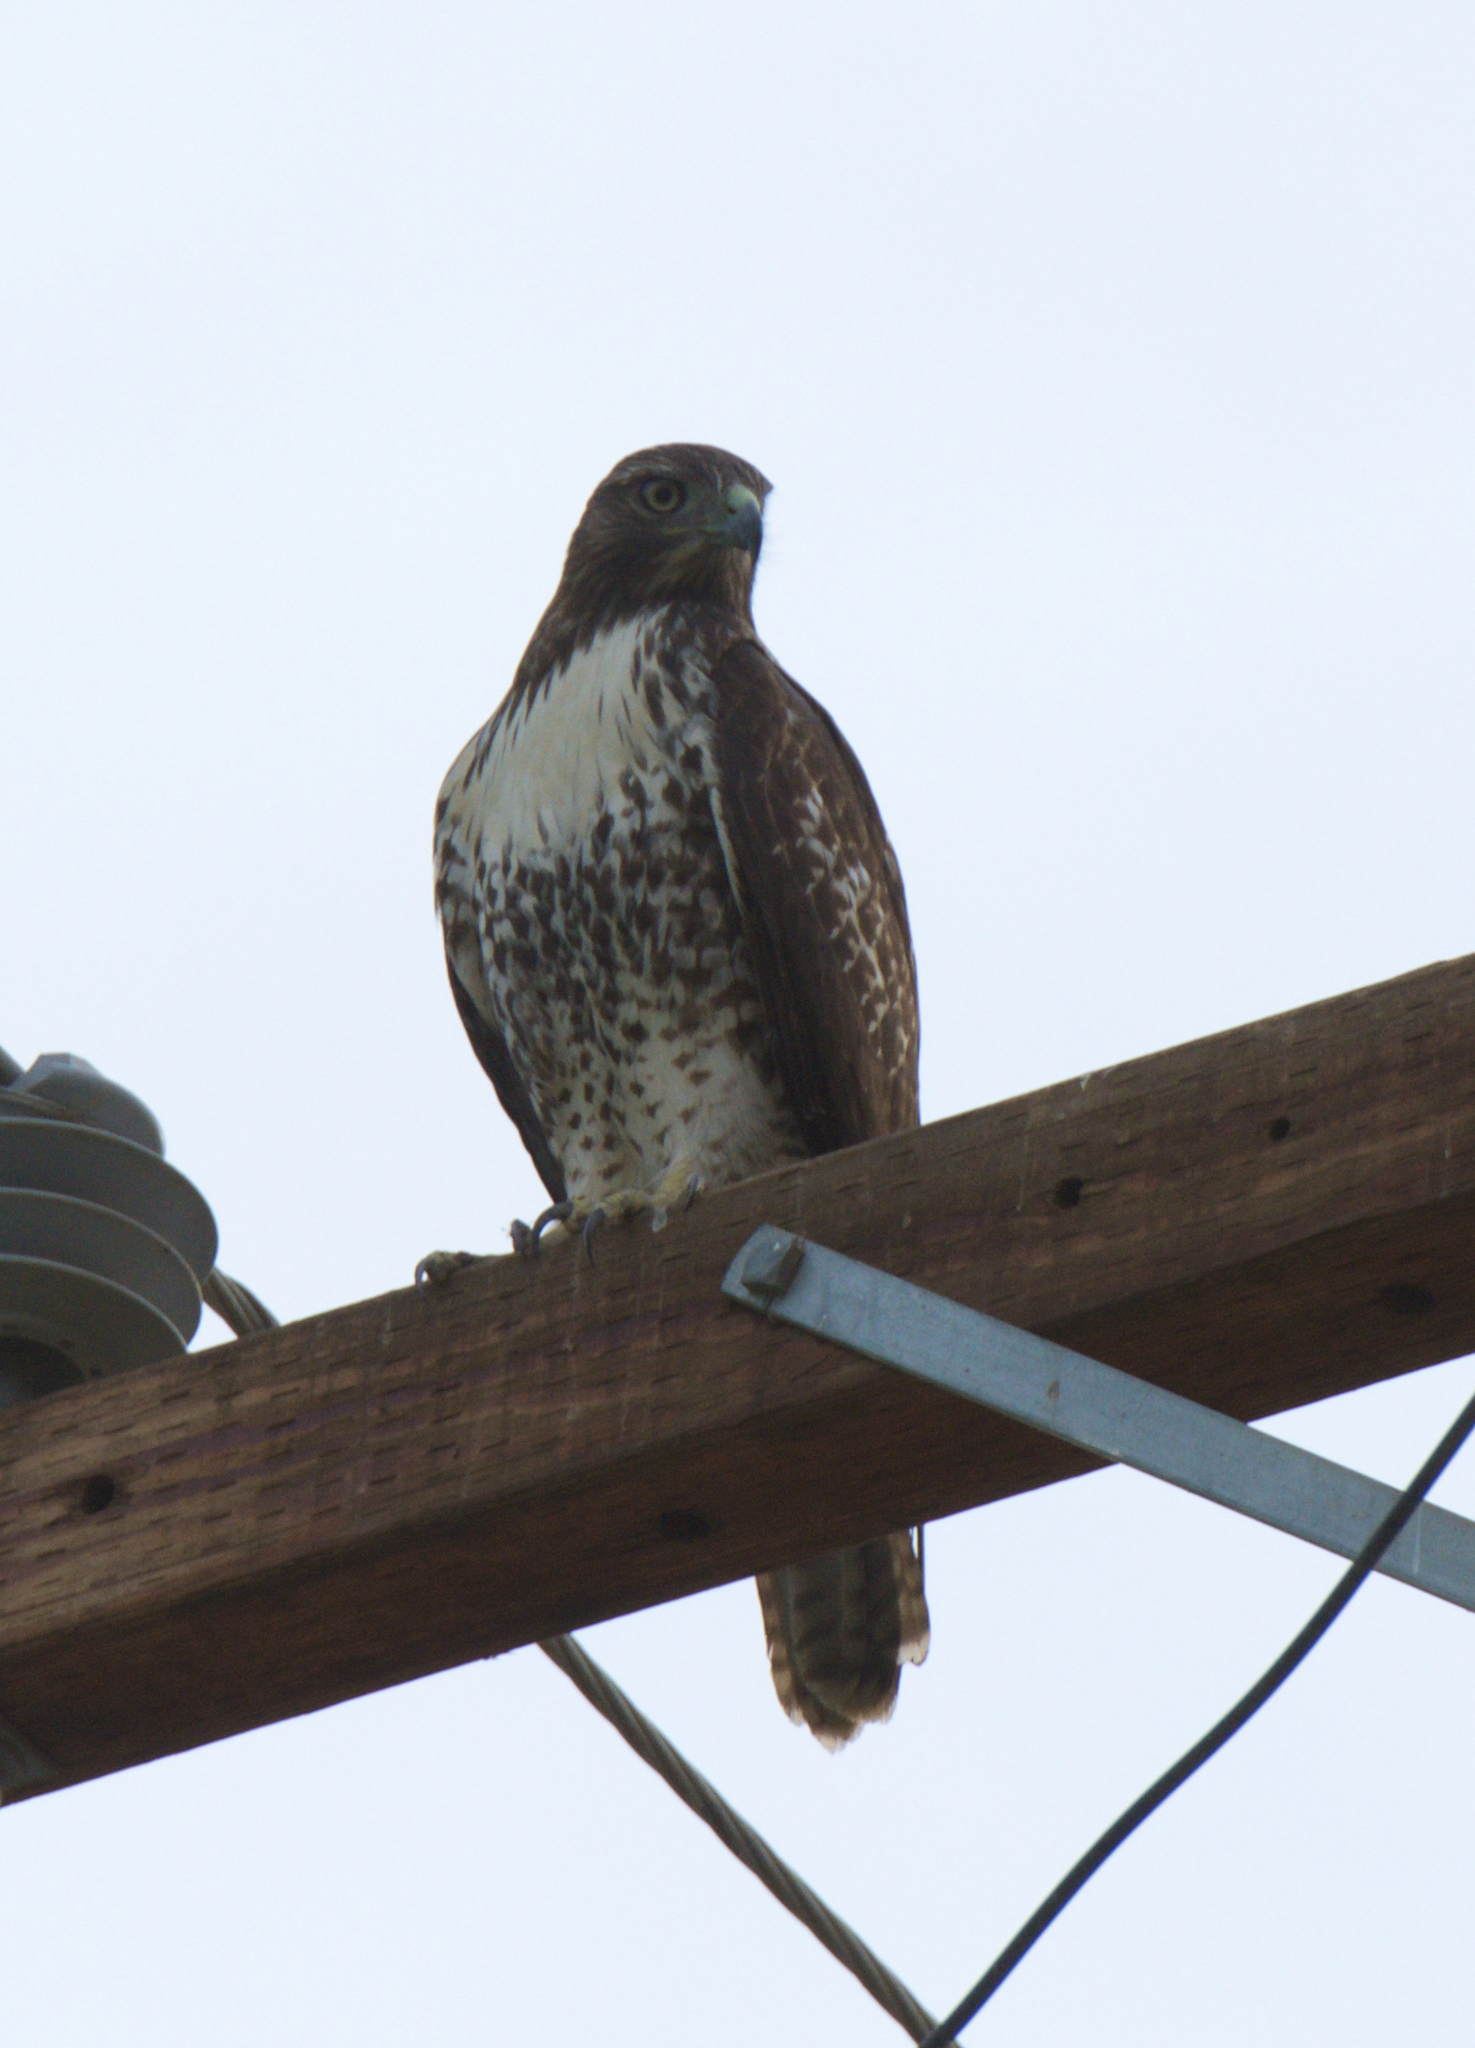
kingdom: Animalia
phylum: Chordata
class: Aves
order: Accipitriformes
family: Accipitridae
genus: Buteo
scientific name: Buteo jamaicensis
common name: Red-tailed hawk
